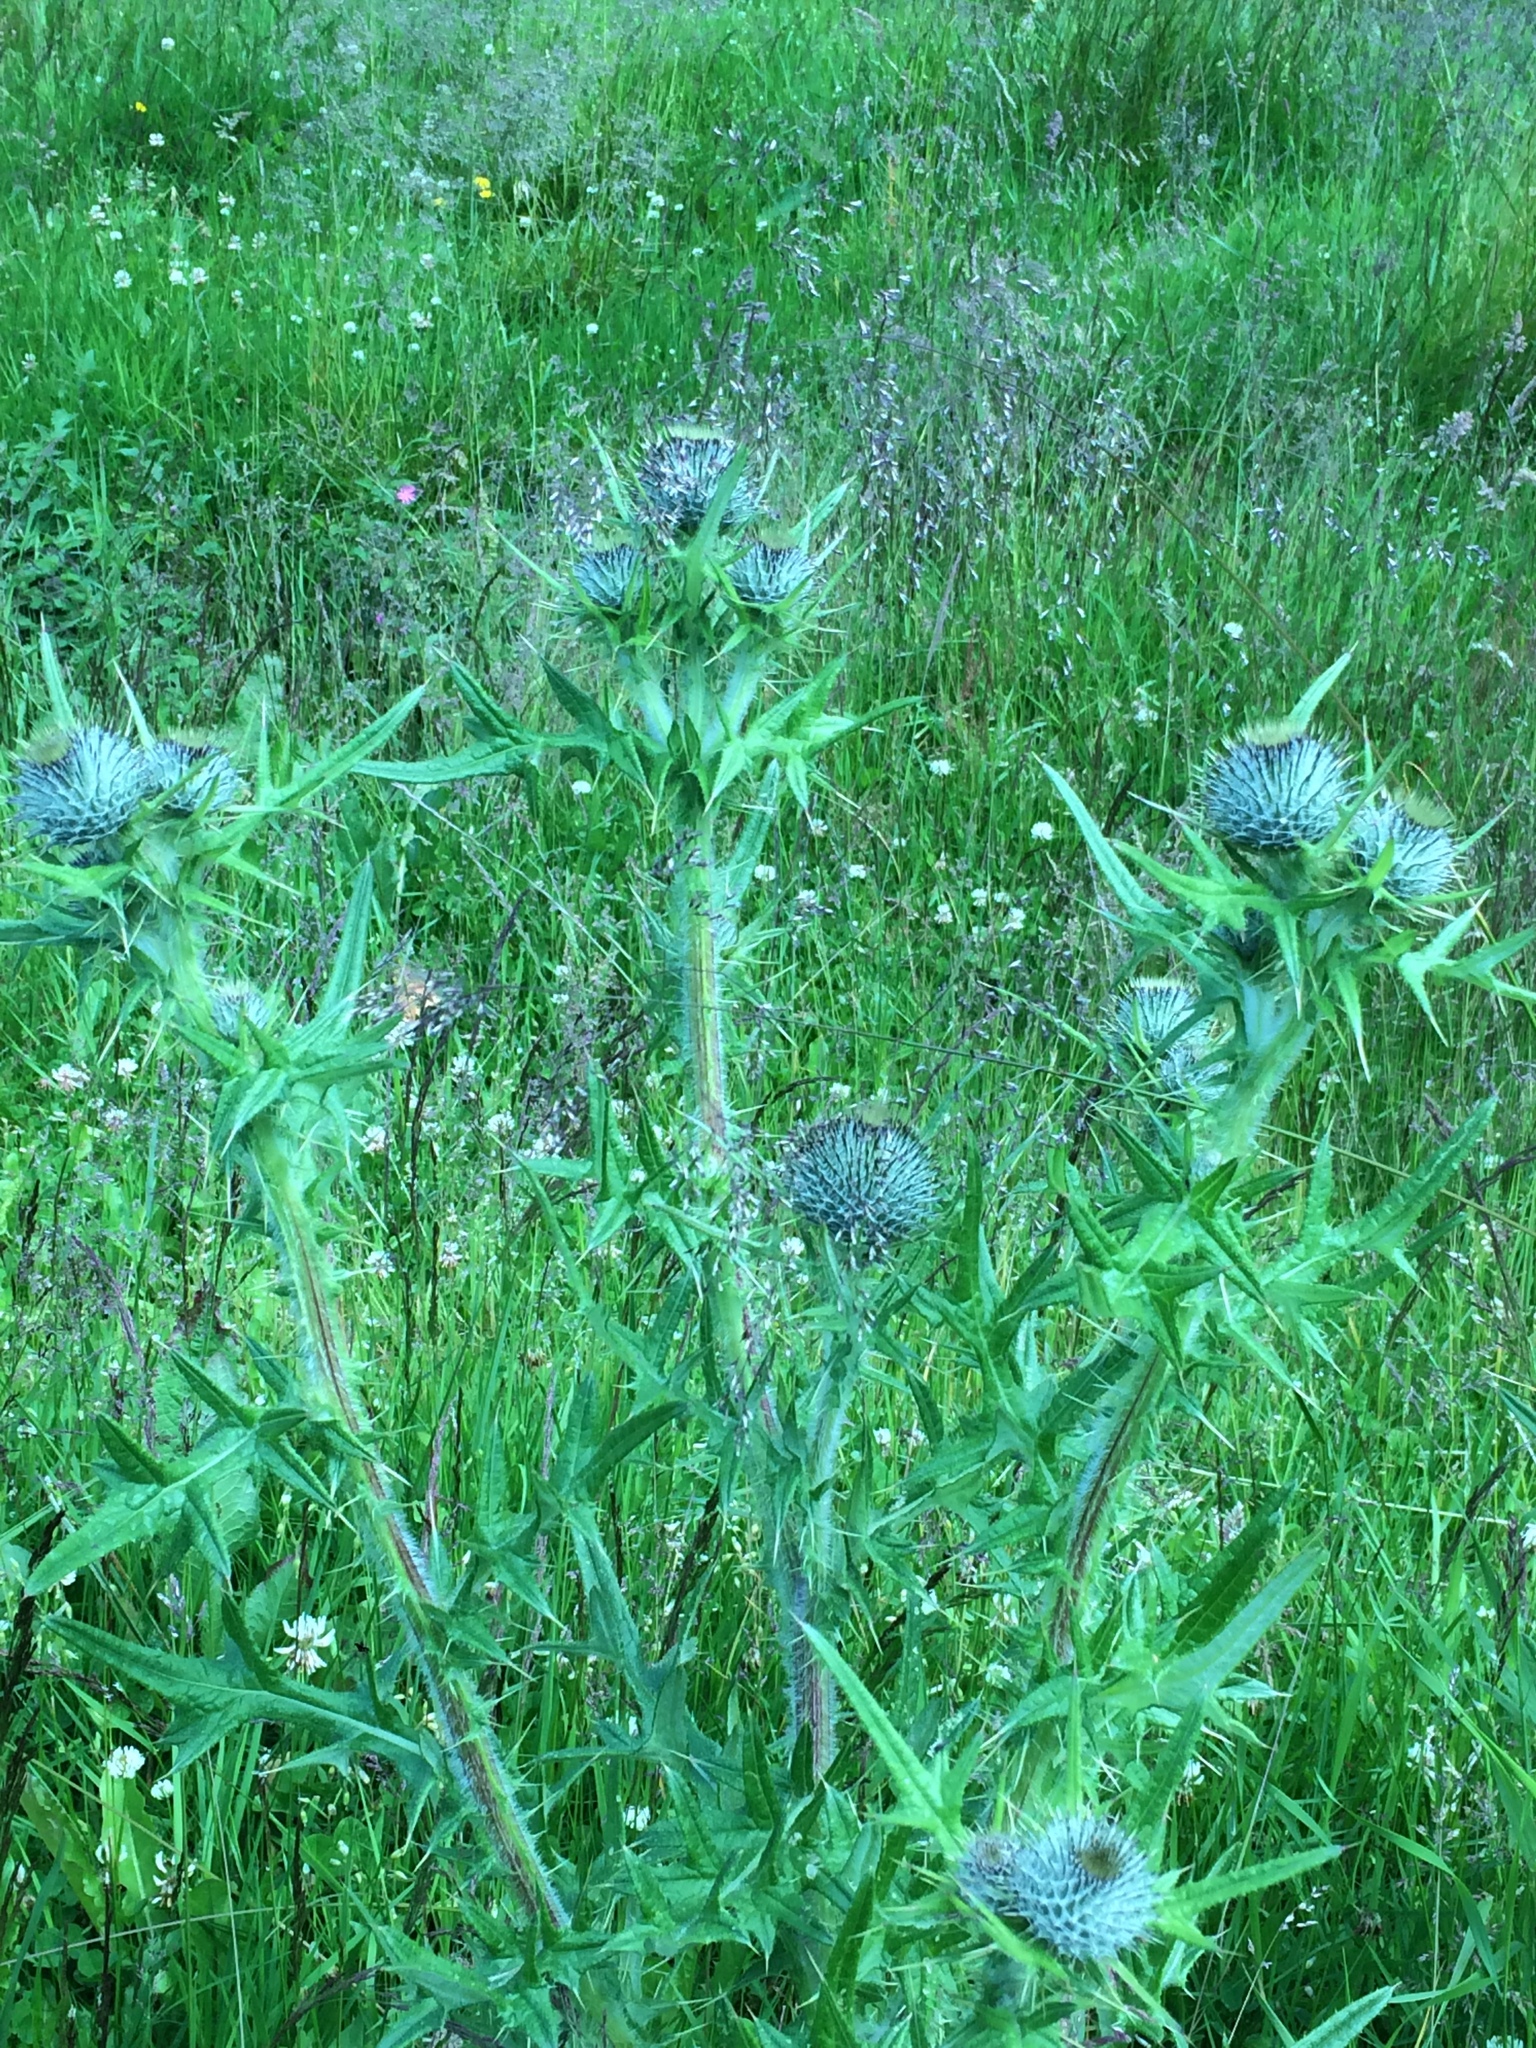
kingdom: Plantae
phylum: Tracheophyta
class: Magnoliopsida
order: Asterales
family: Asteraceae
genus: Cirsium
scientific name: Cirsium vulgare
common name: Bull thistle
